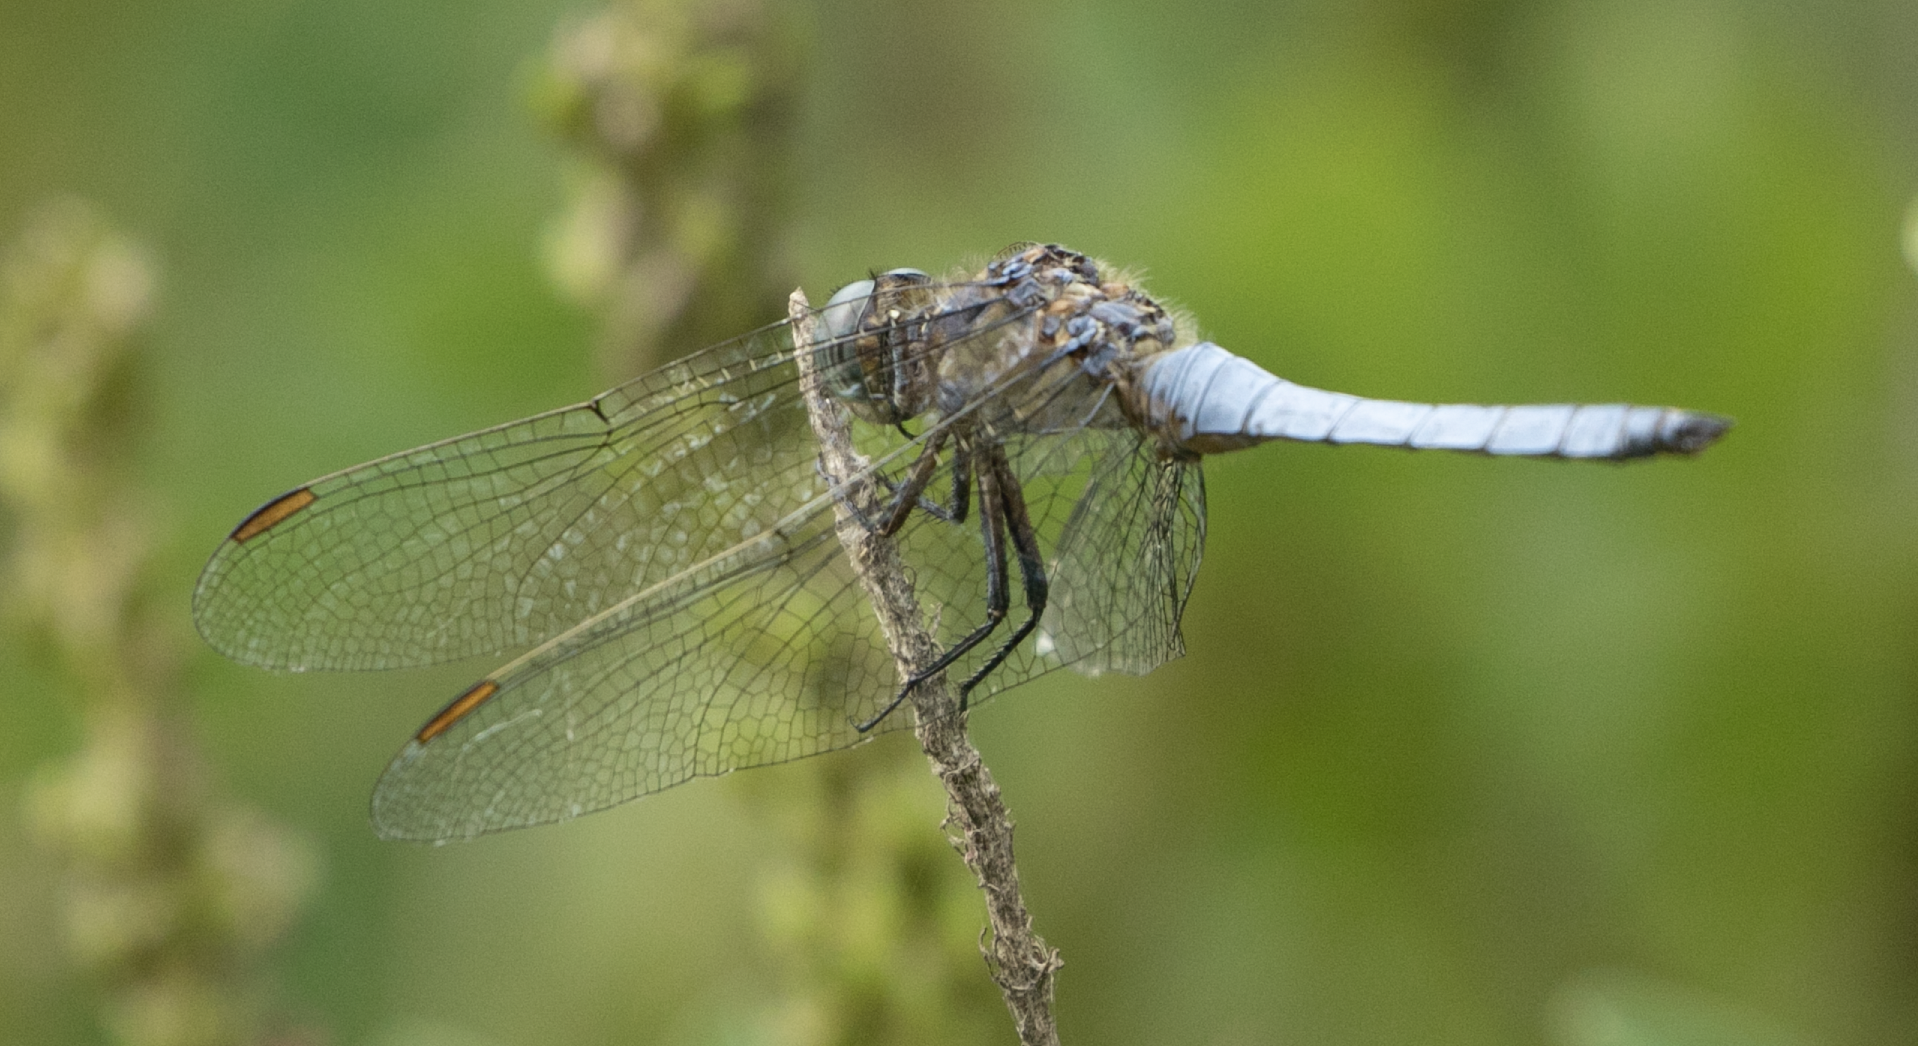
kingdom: Animalia
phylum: Arthropoda
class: Insecta
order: Odonata
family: Libellulidae
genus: Orthetrum
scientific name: Orthetrum coerulescens
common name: Keeled skimmer
